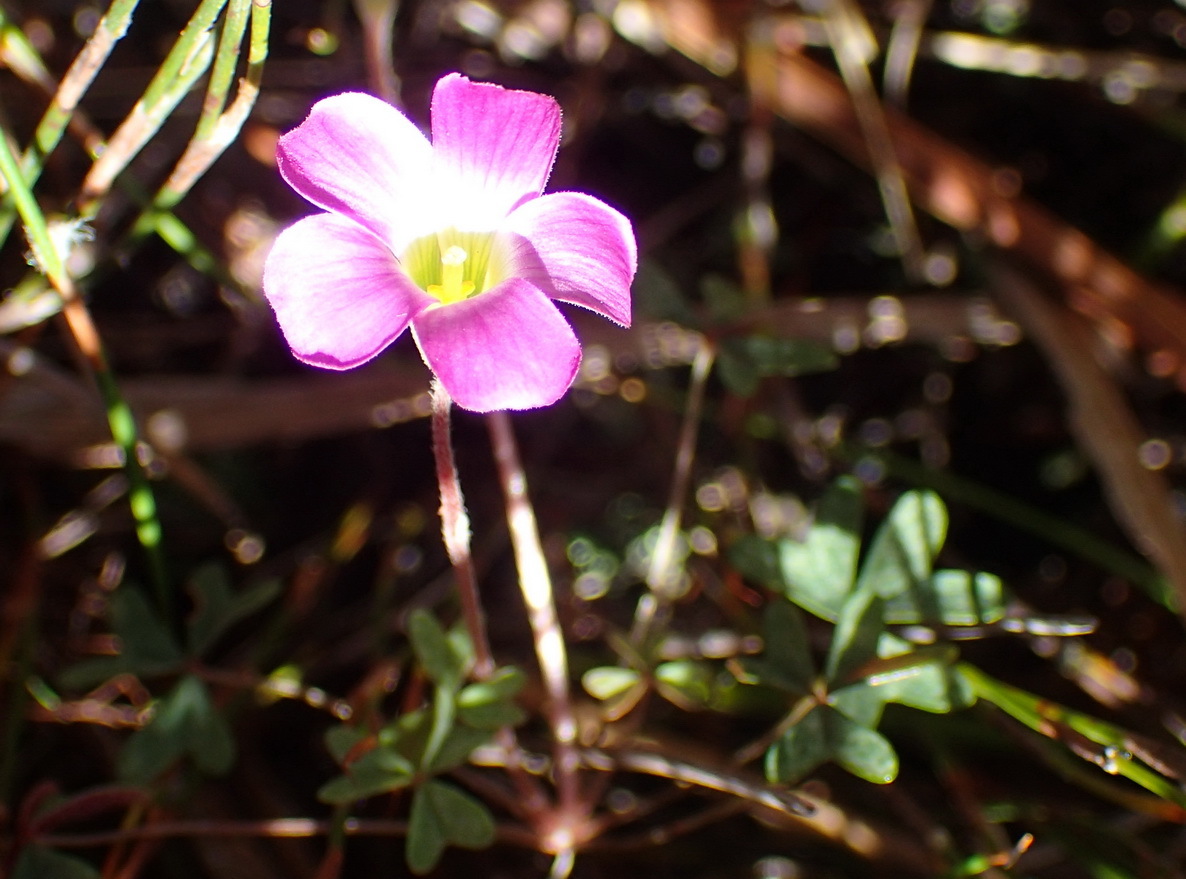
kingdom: Plantae
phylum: Tracheophyta
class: Magnoliopsida
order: Oxalidales
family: Oxalidaceae
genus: Oxalis
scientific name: Oxalis heterophylla
